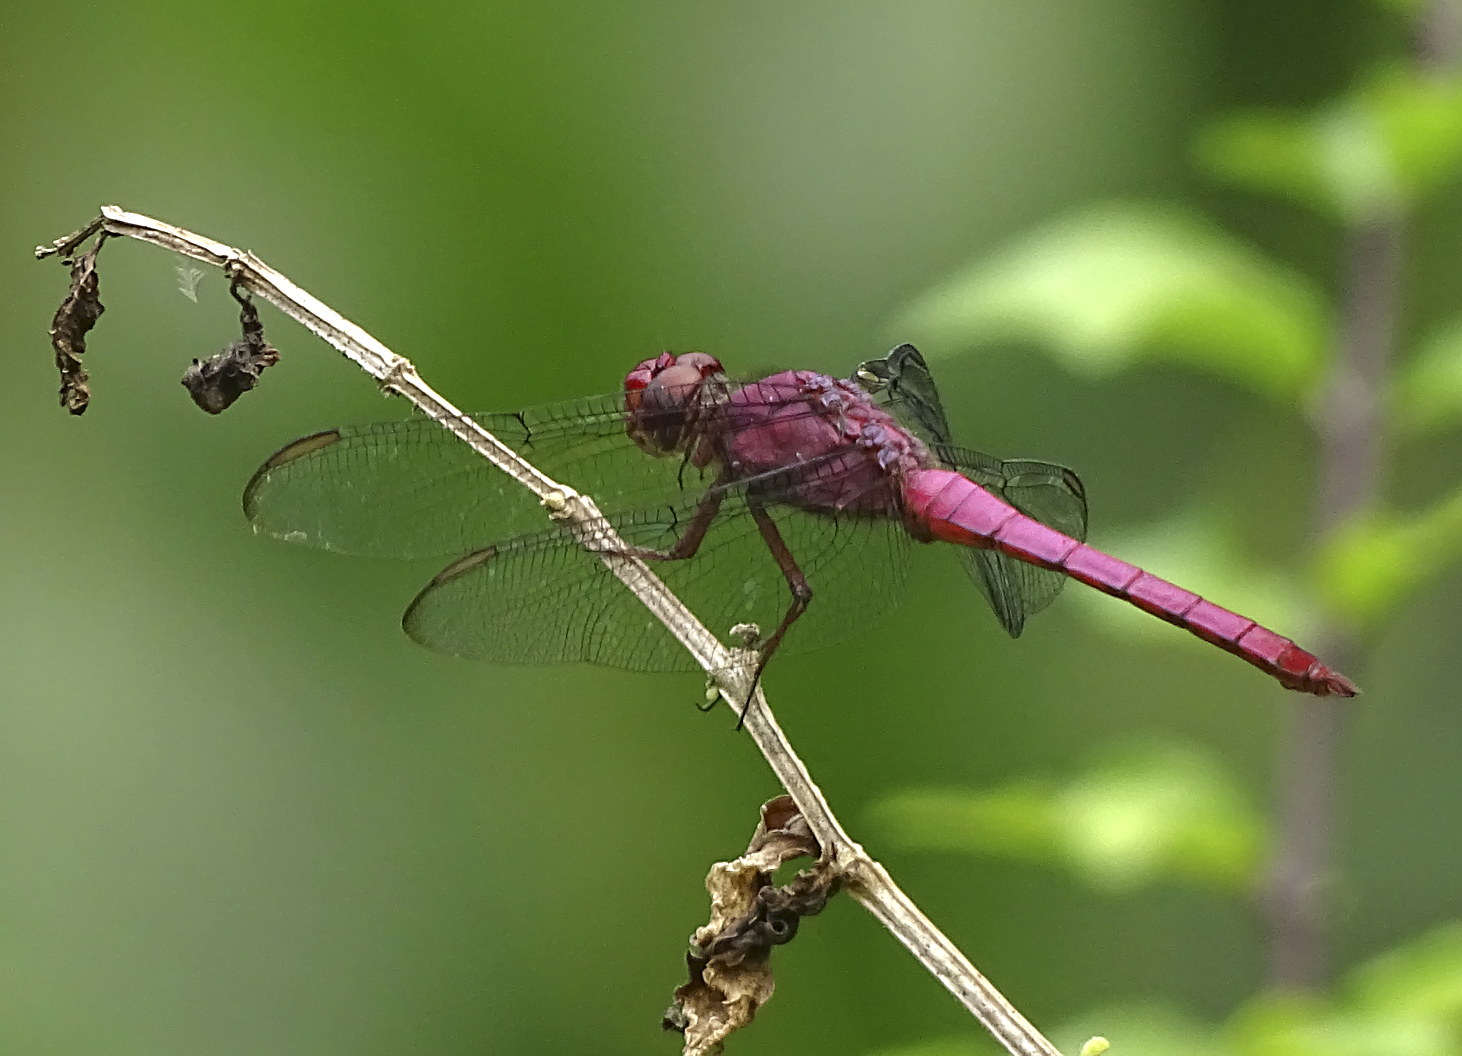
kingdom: Animalia
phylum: Arthropoda
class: Insecta
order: Odonata
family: Libellulidae
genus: Orthemis
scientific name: Orthemis discolor
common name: Carmine skimmer
